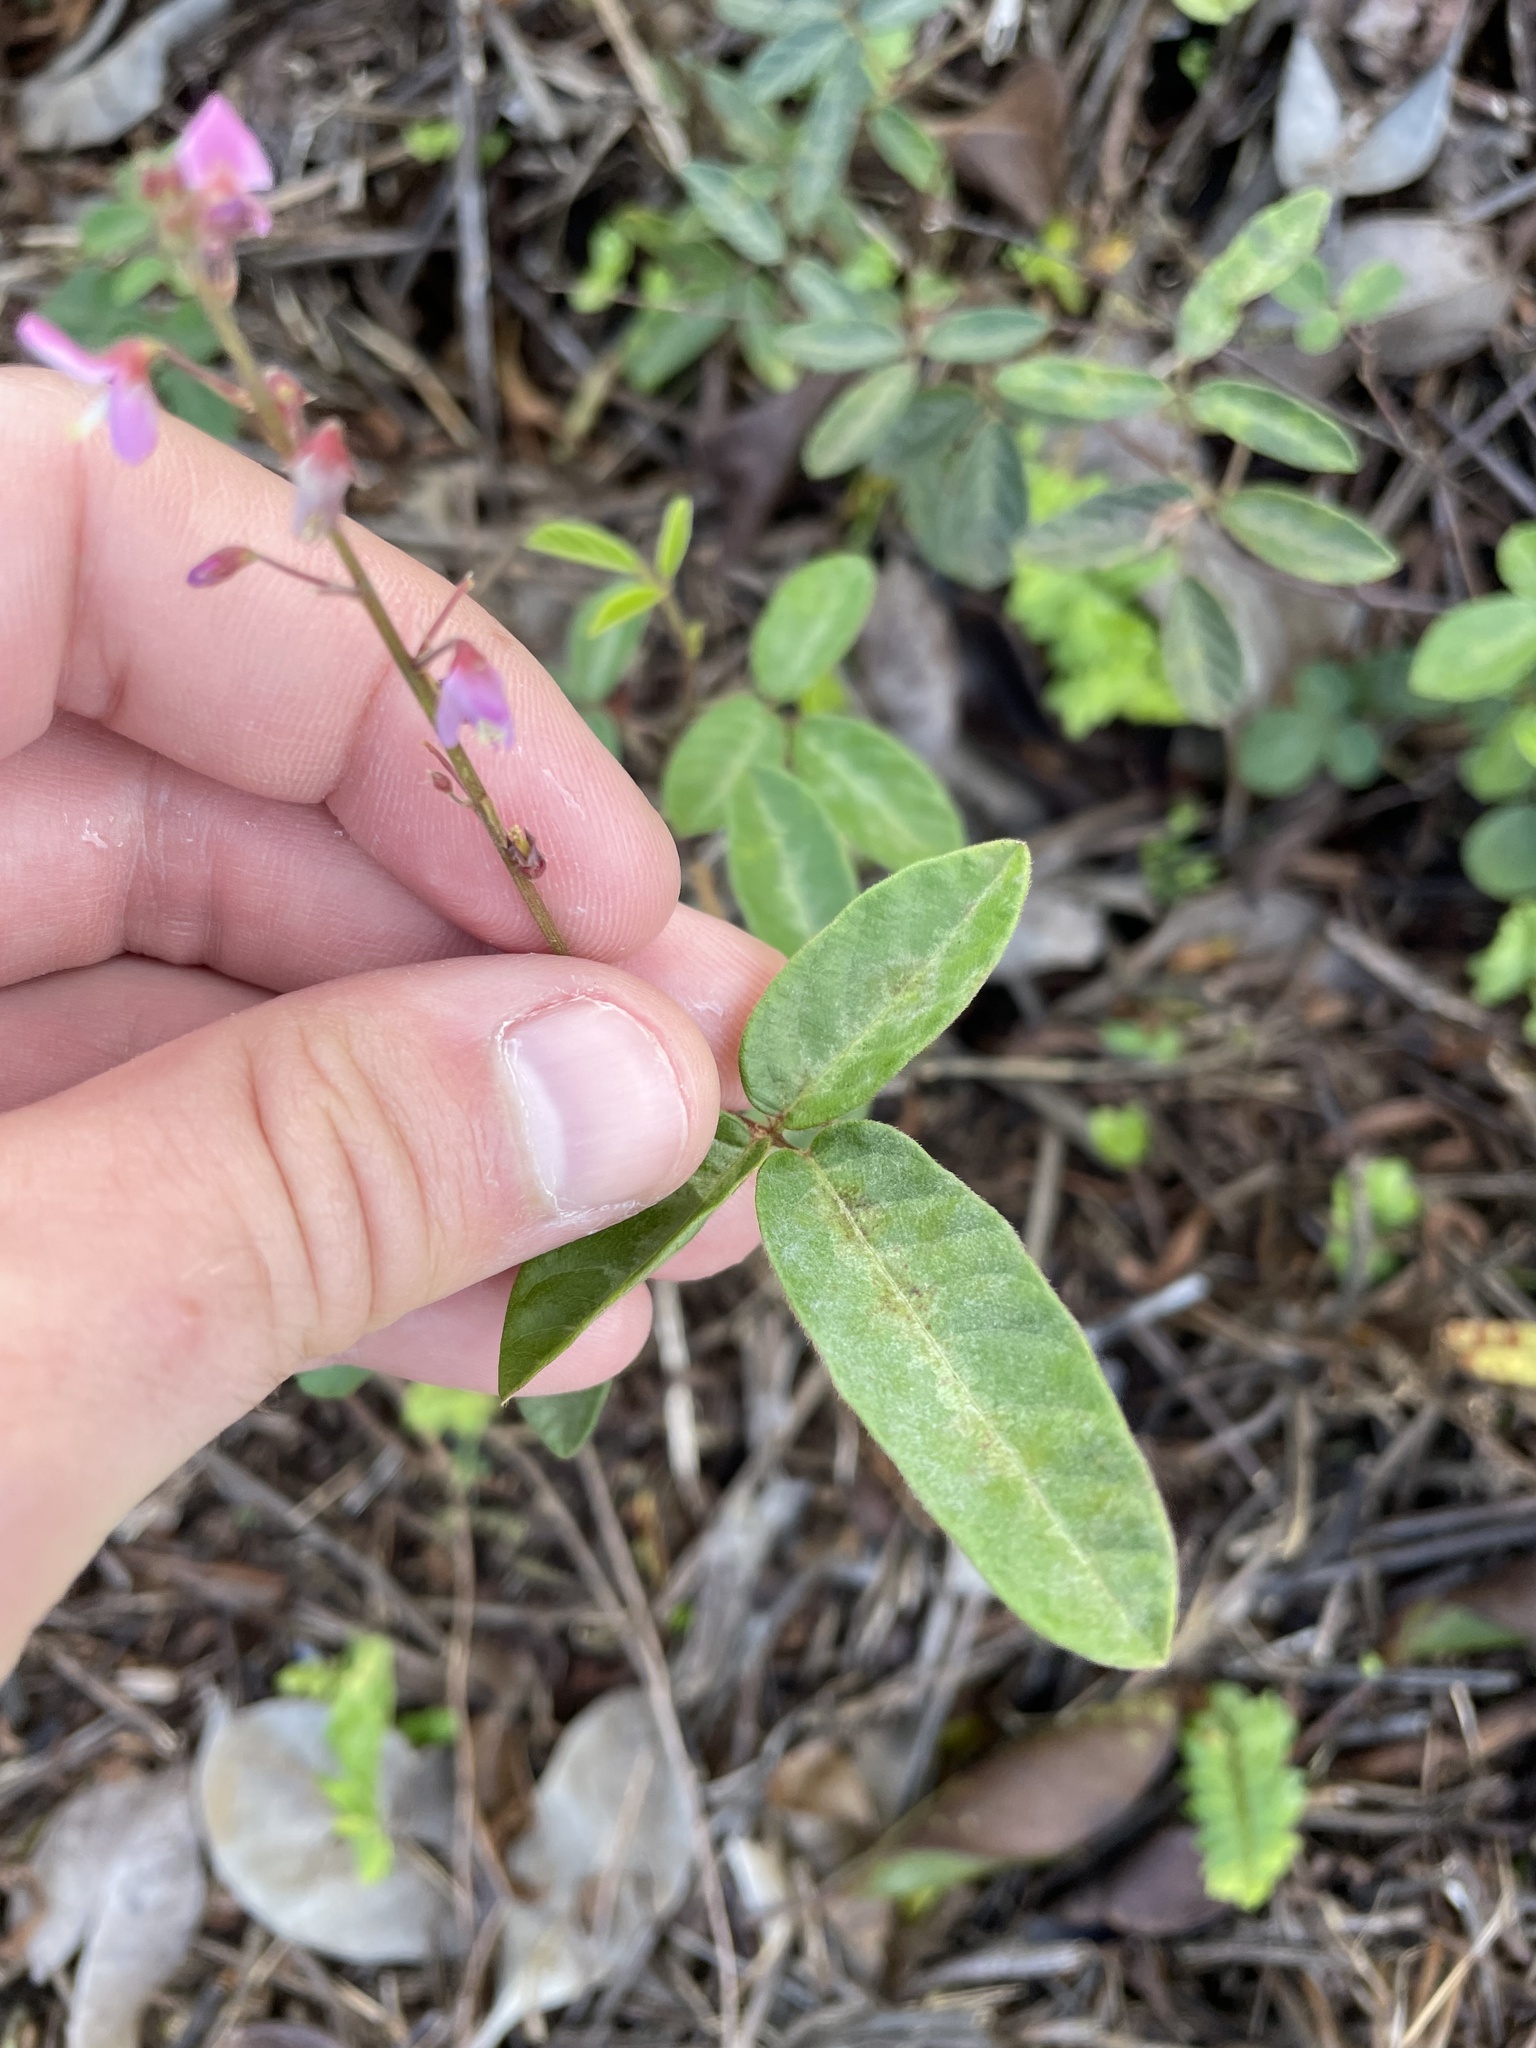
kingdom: Plantae
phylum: Tracheophyta
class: Magnoliopsida
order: Fabales
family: Fabaceae
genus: Desmodium
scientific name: Desmodium incanum
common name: Tickclover
